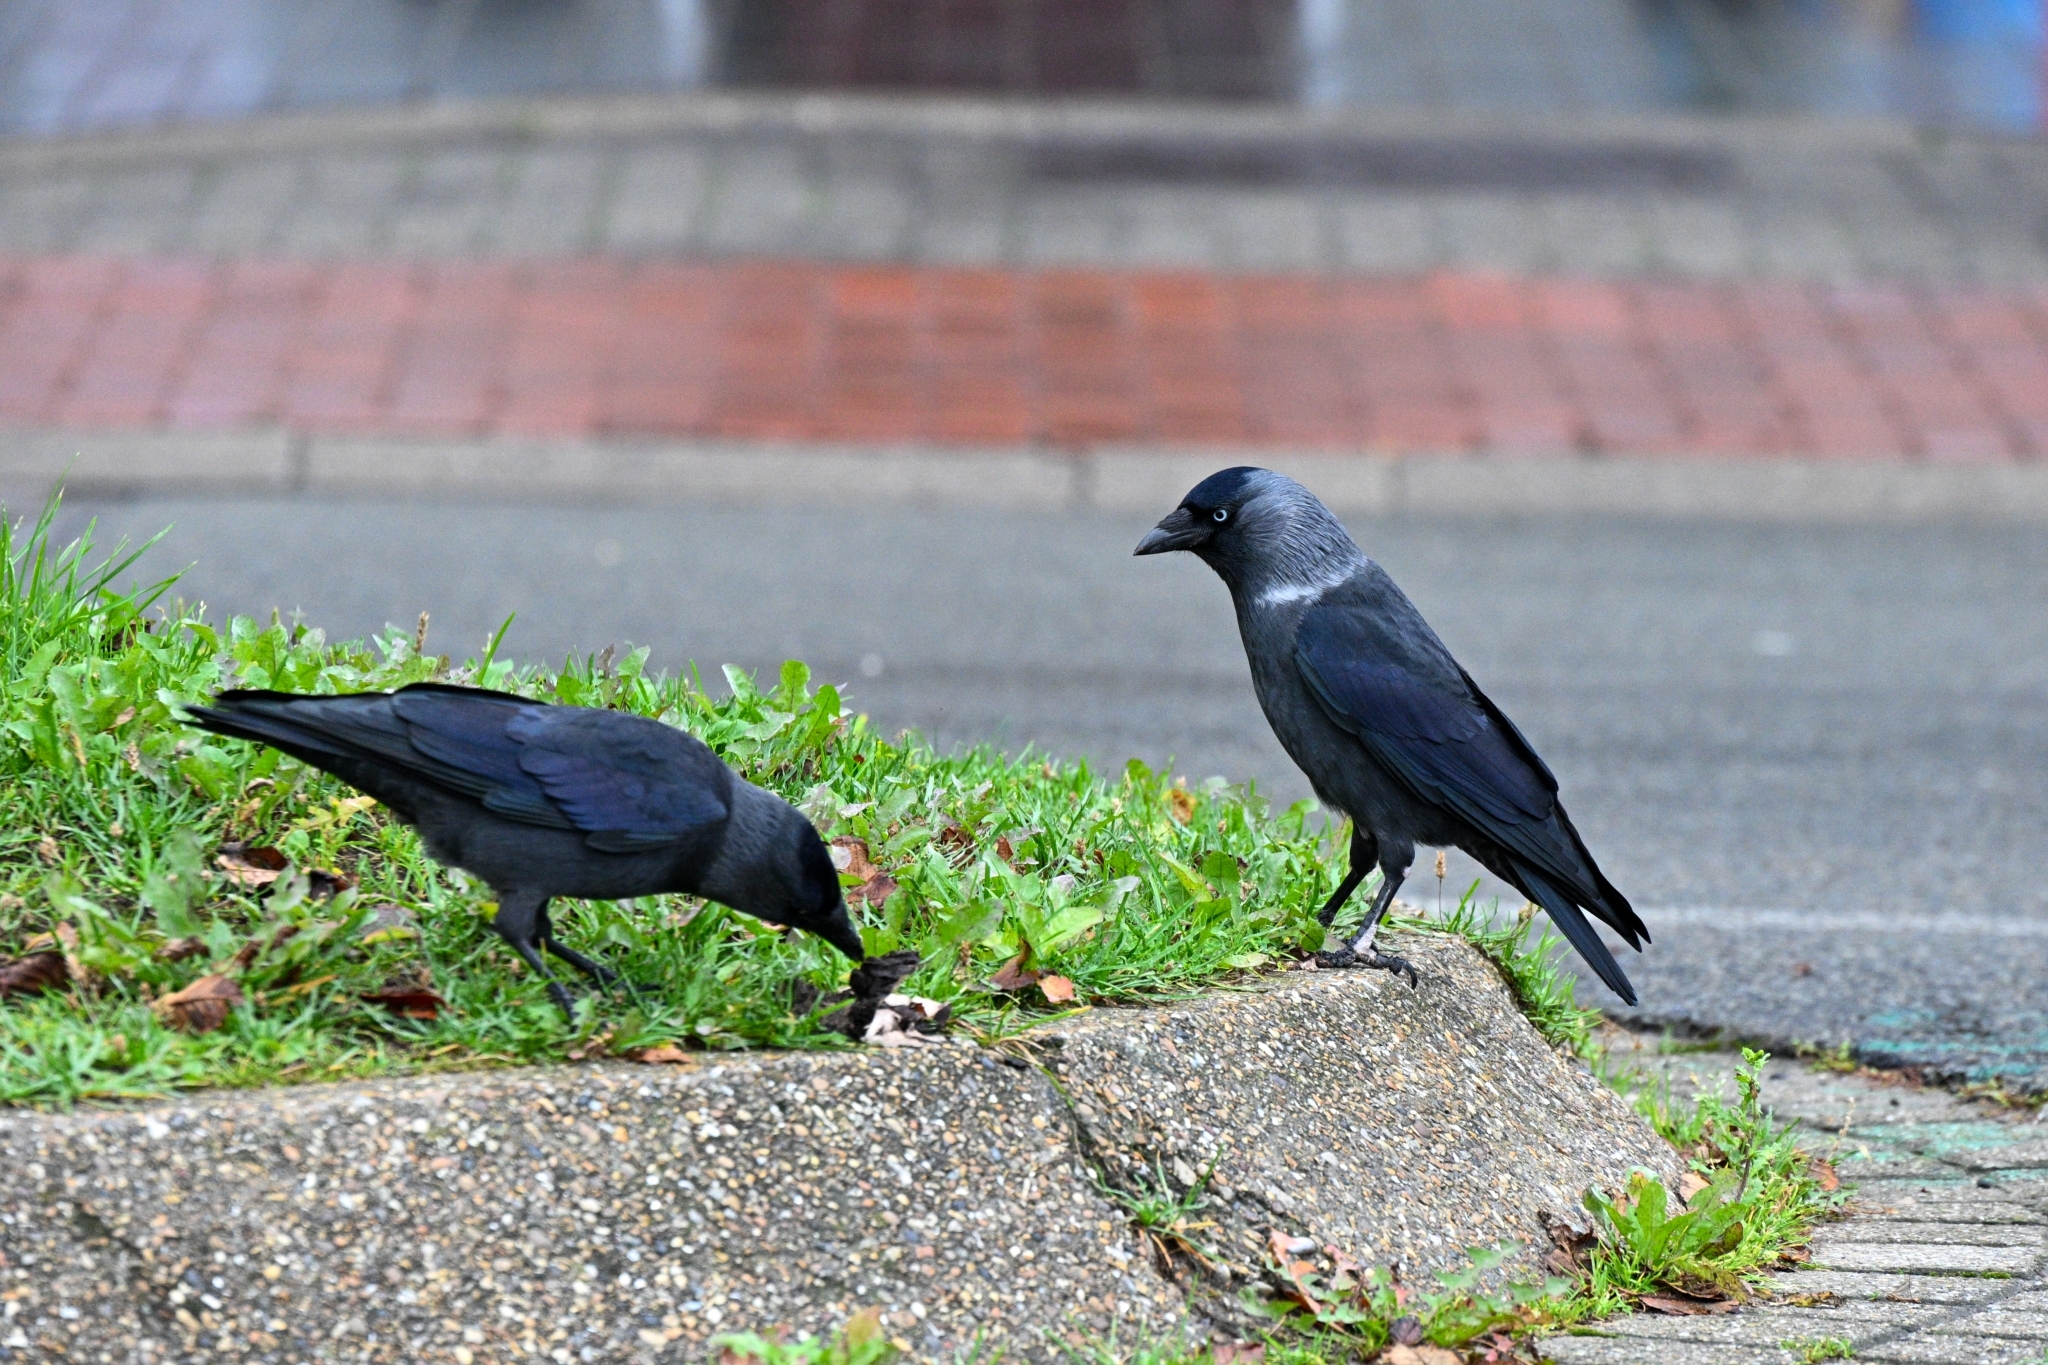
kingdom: Animalia
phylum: Chordata
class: Aves
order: Passeriformes
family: Corvidae
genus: Coloeus
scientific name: Coloeus monedula
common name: Western jackdaw
